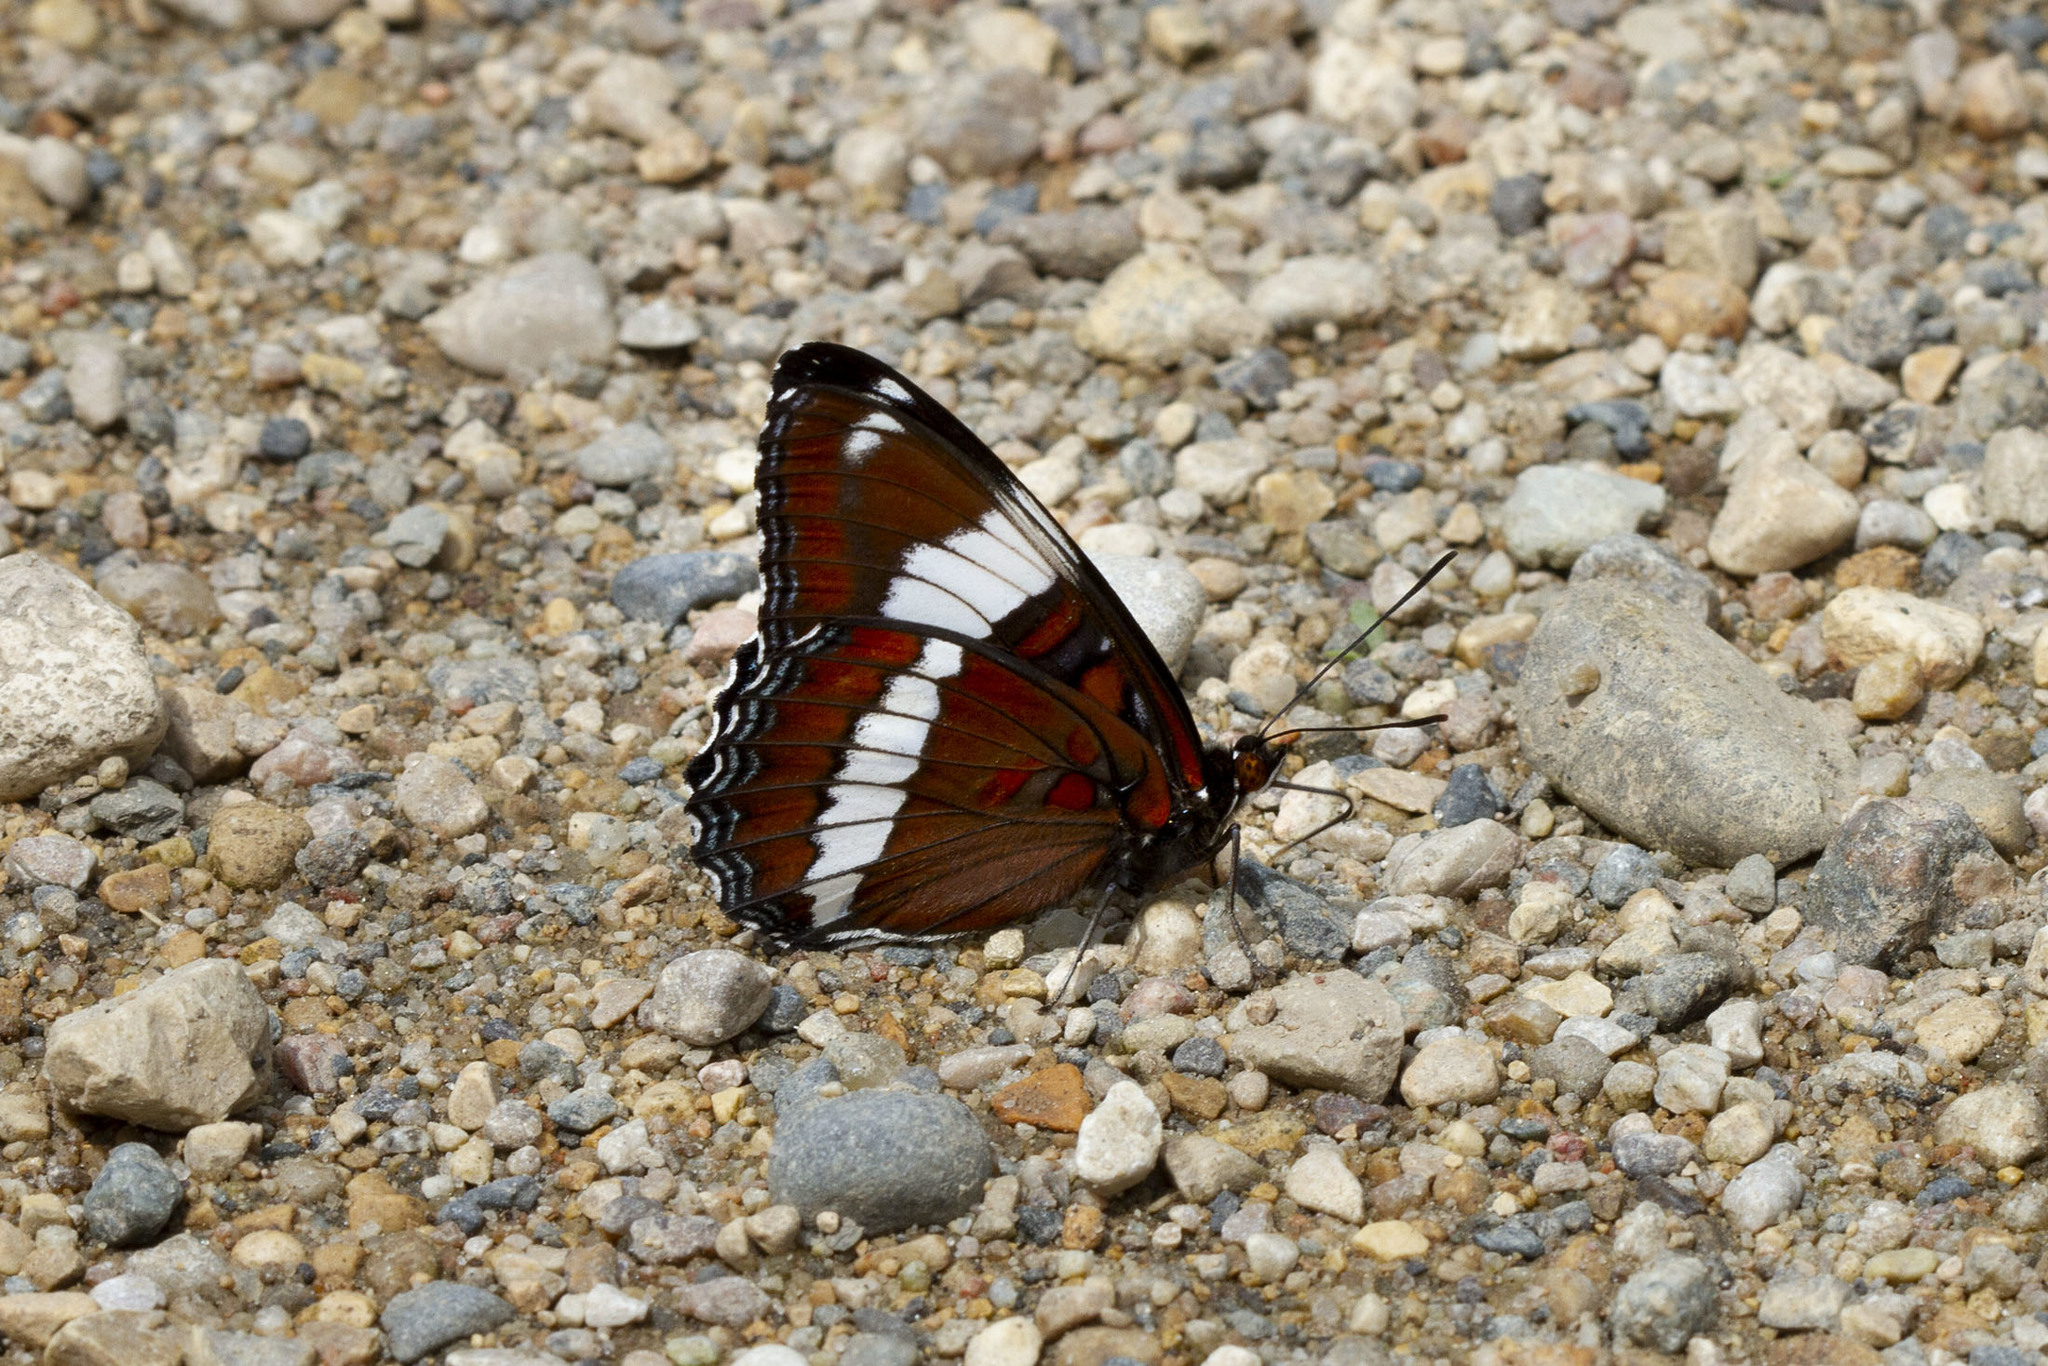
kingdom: Animalia
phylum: Arthropoda
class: Insecta
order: Lepidoptera
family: Nymphalidae
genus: Limenitis
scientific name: Limenitis arthemis
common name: Red-spotted admiral
